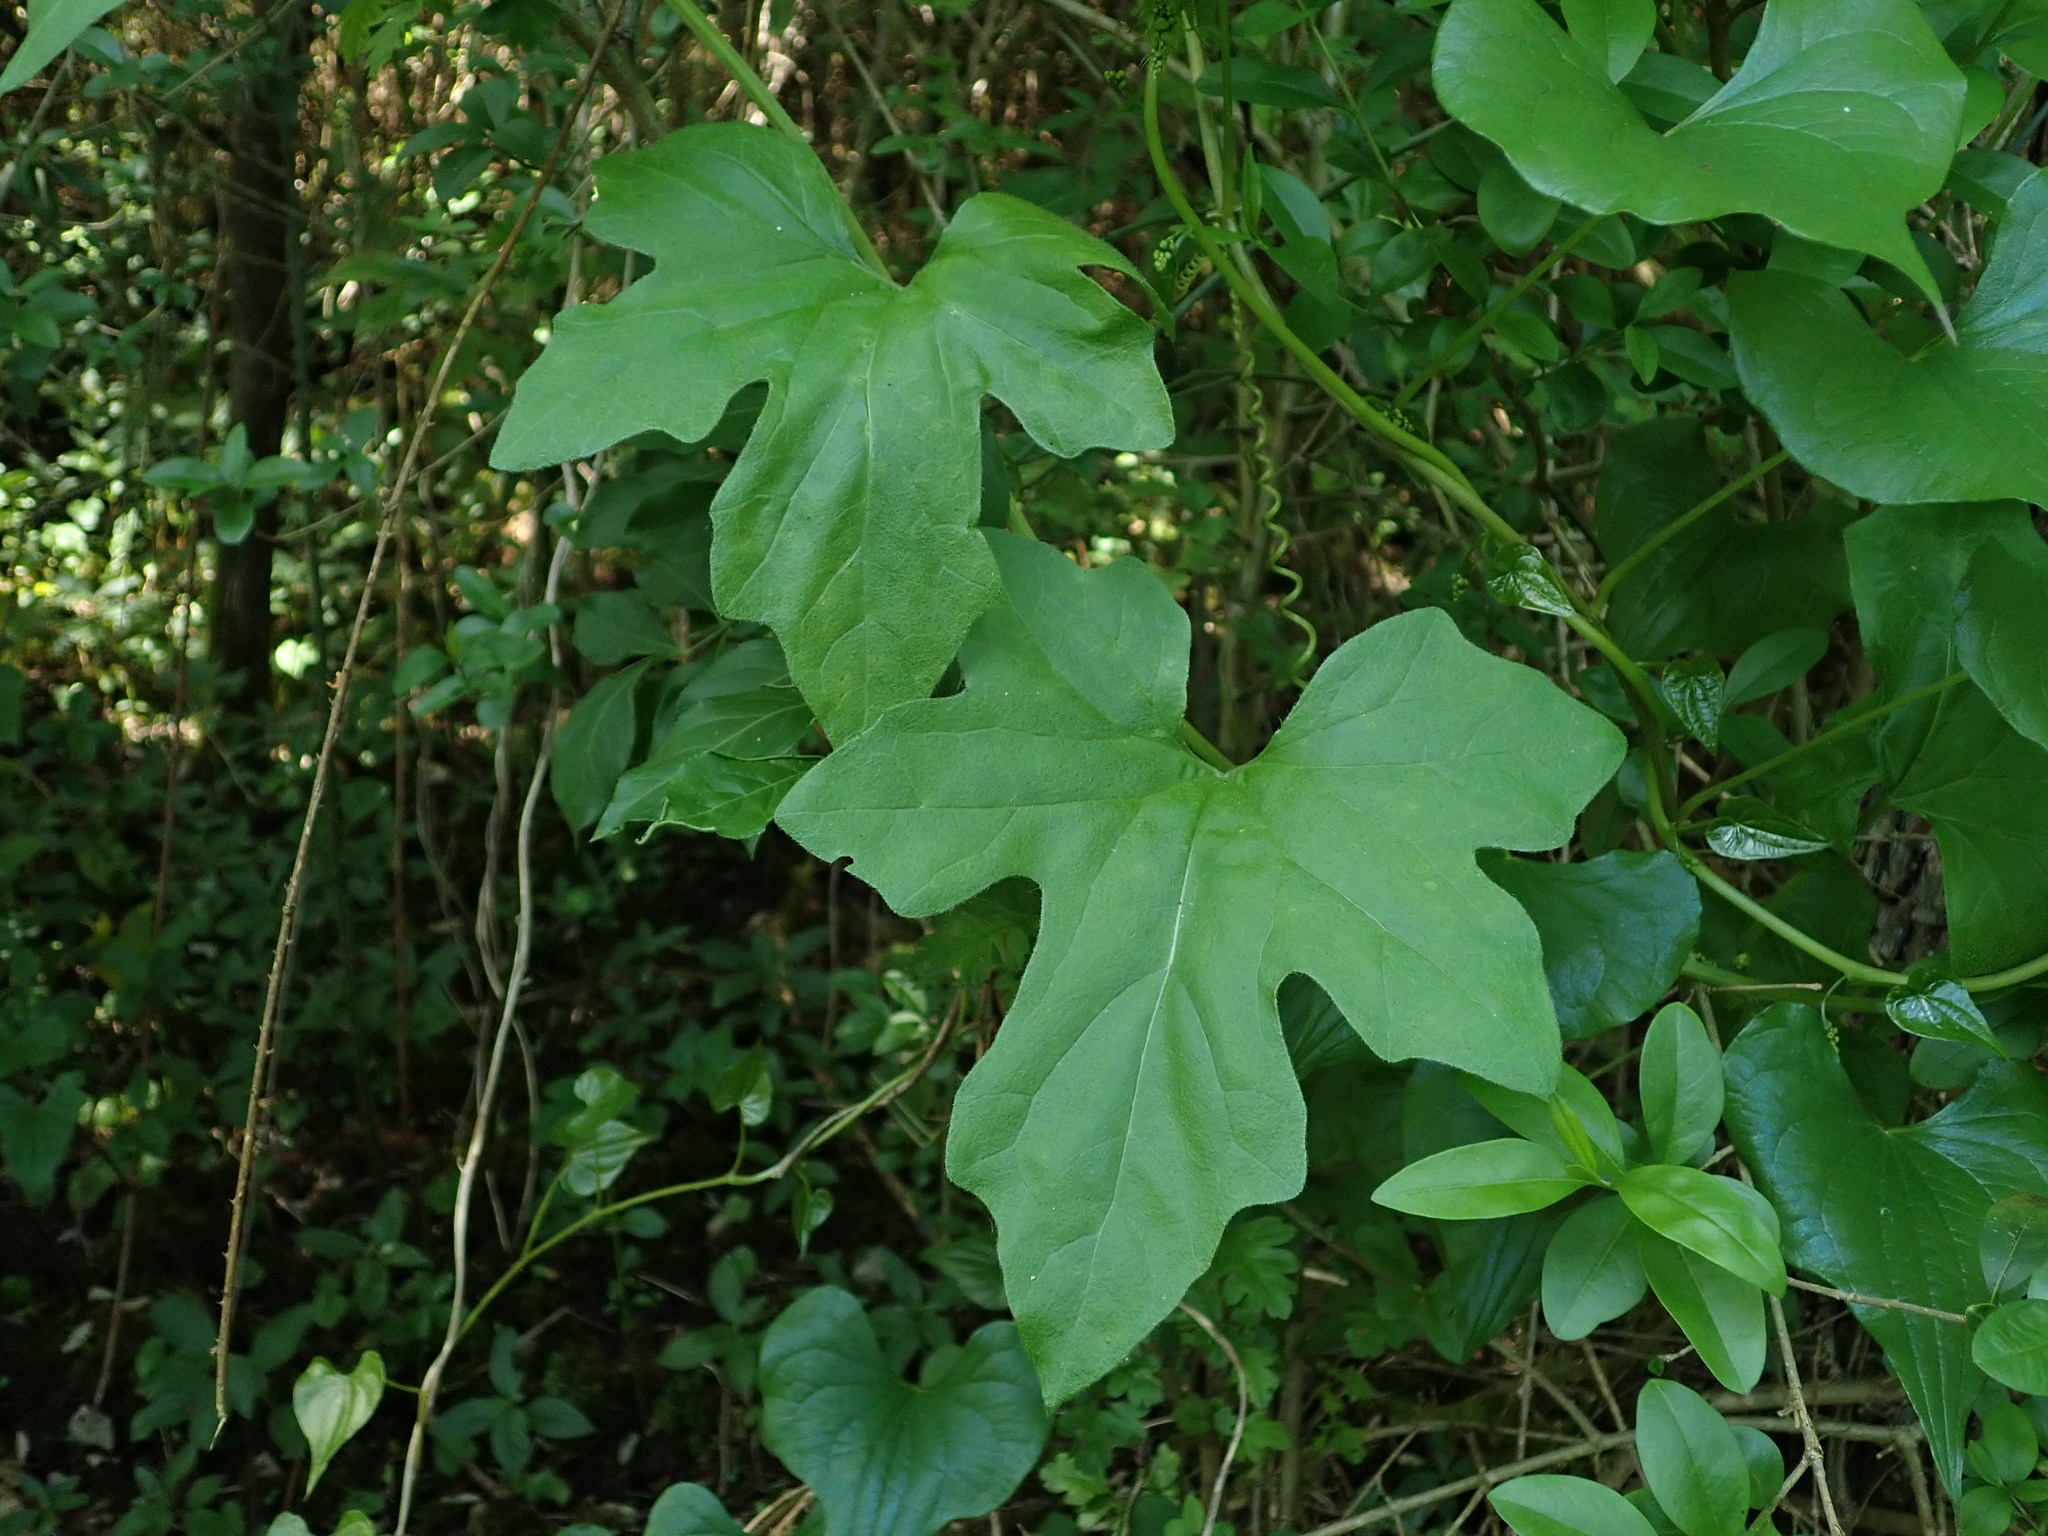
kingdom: Plantae
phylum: Tracheophyta
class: Magnoliopsida
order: Cucurbitales
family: Cucurbitaceae
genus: Bryonia
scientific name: Bryonia cretica
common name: Cretan bryony
